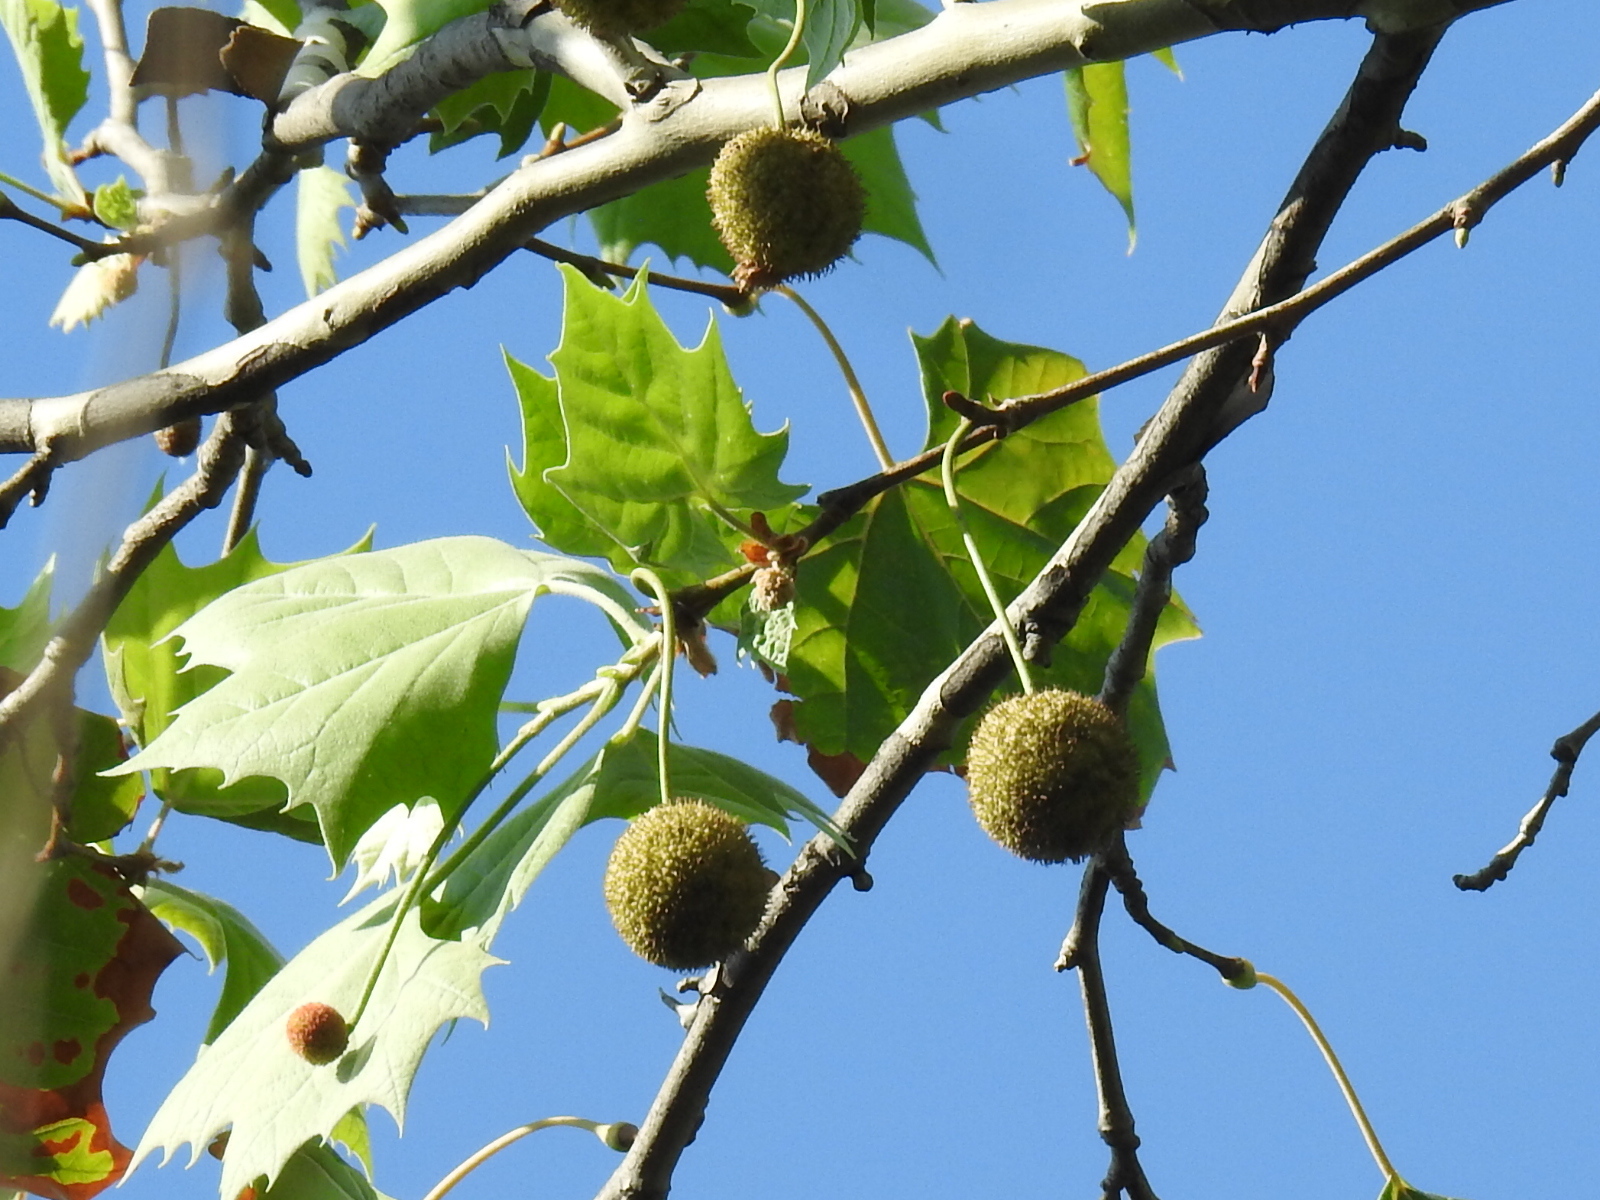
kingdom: Plantae
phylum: Tracheophyta
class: Magnoliopsida
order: Proteales
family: Platanaceae
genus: Platanus
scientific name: Platanus occidentalis
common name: American sycamore
